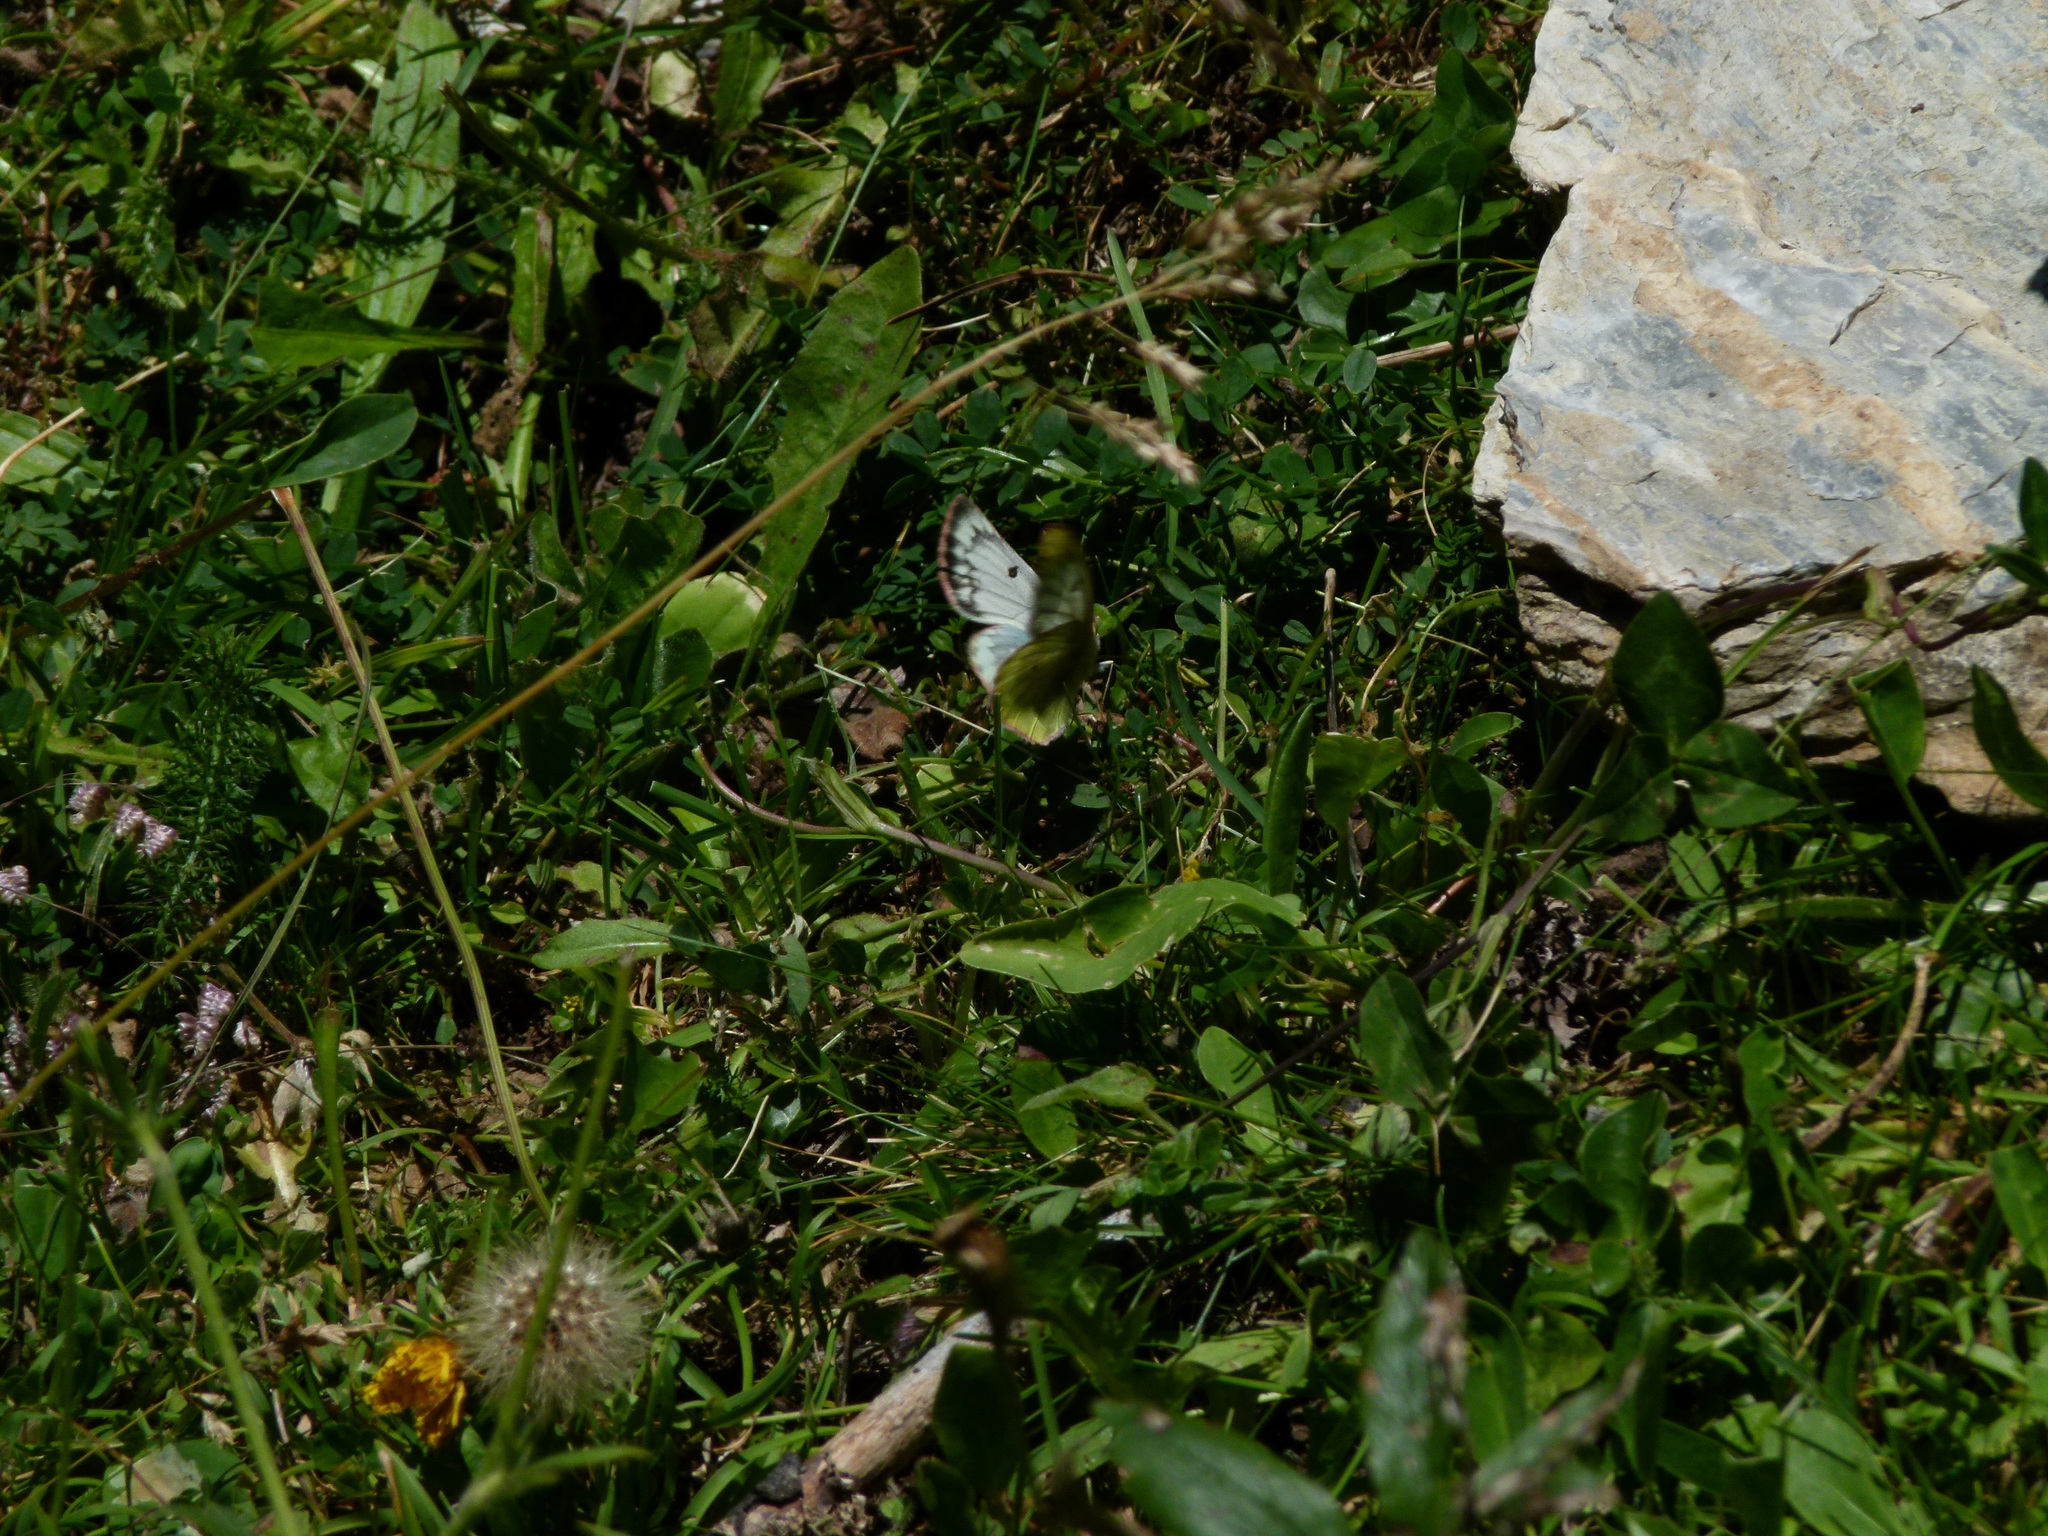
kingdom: Animalia
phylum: Arthropoda
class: Insecta
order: Lepidoptera
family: Pieridae
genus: Colias
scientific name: Colias phicomone
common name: Mountain clouded yellow
